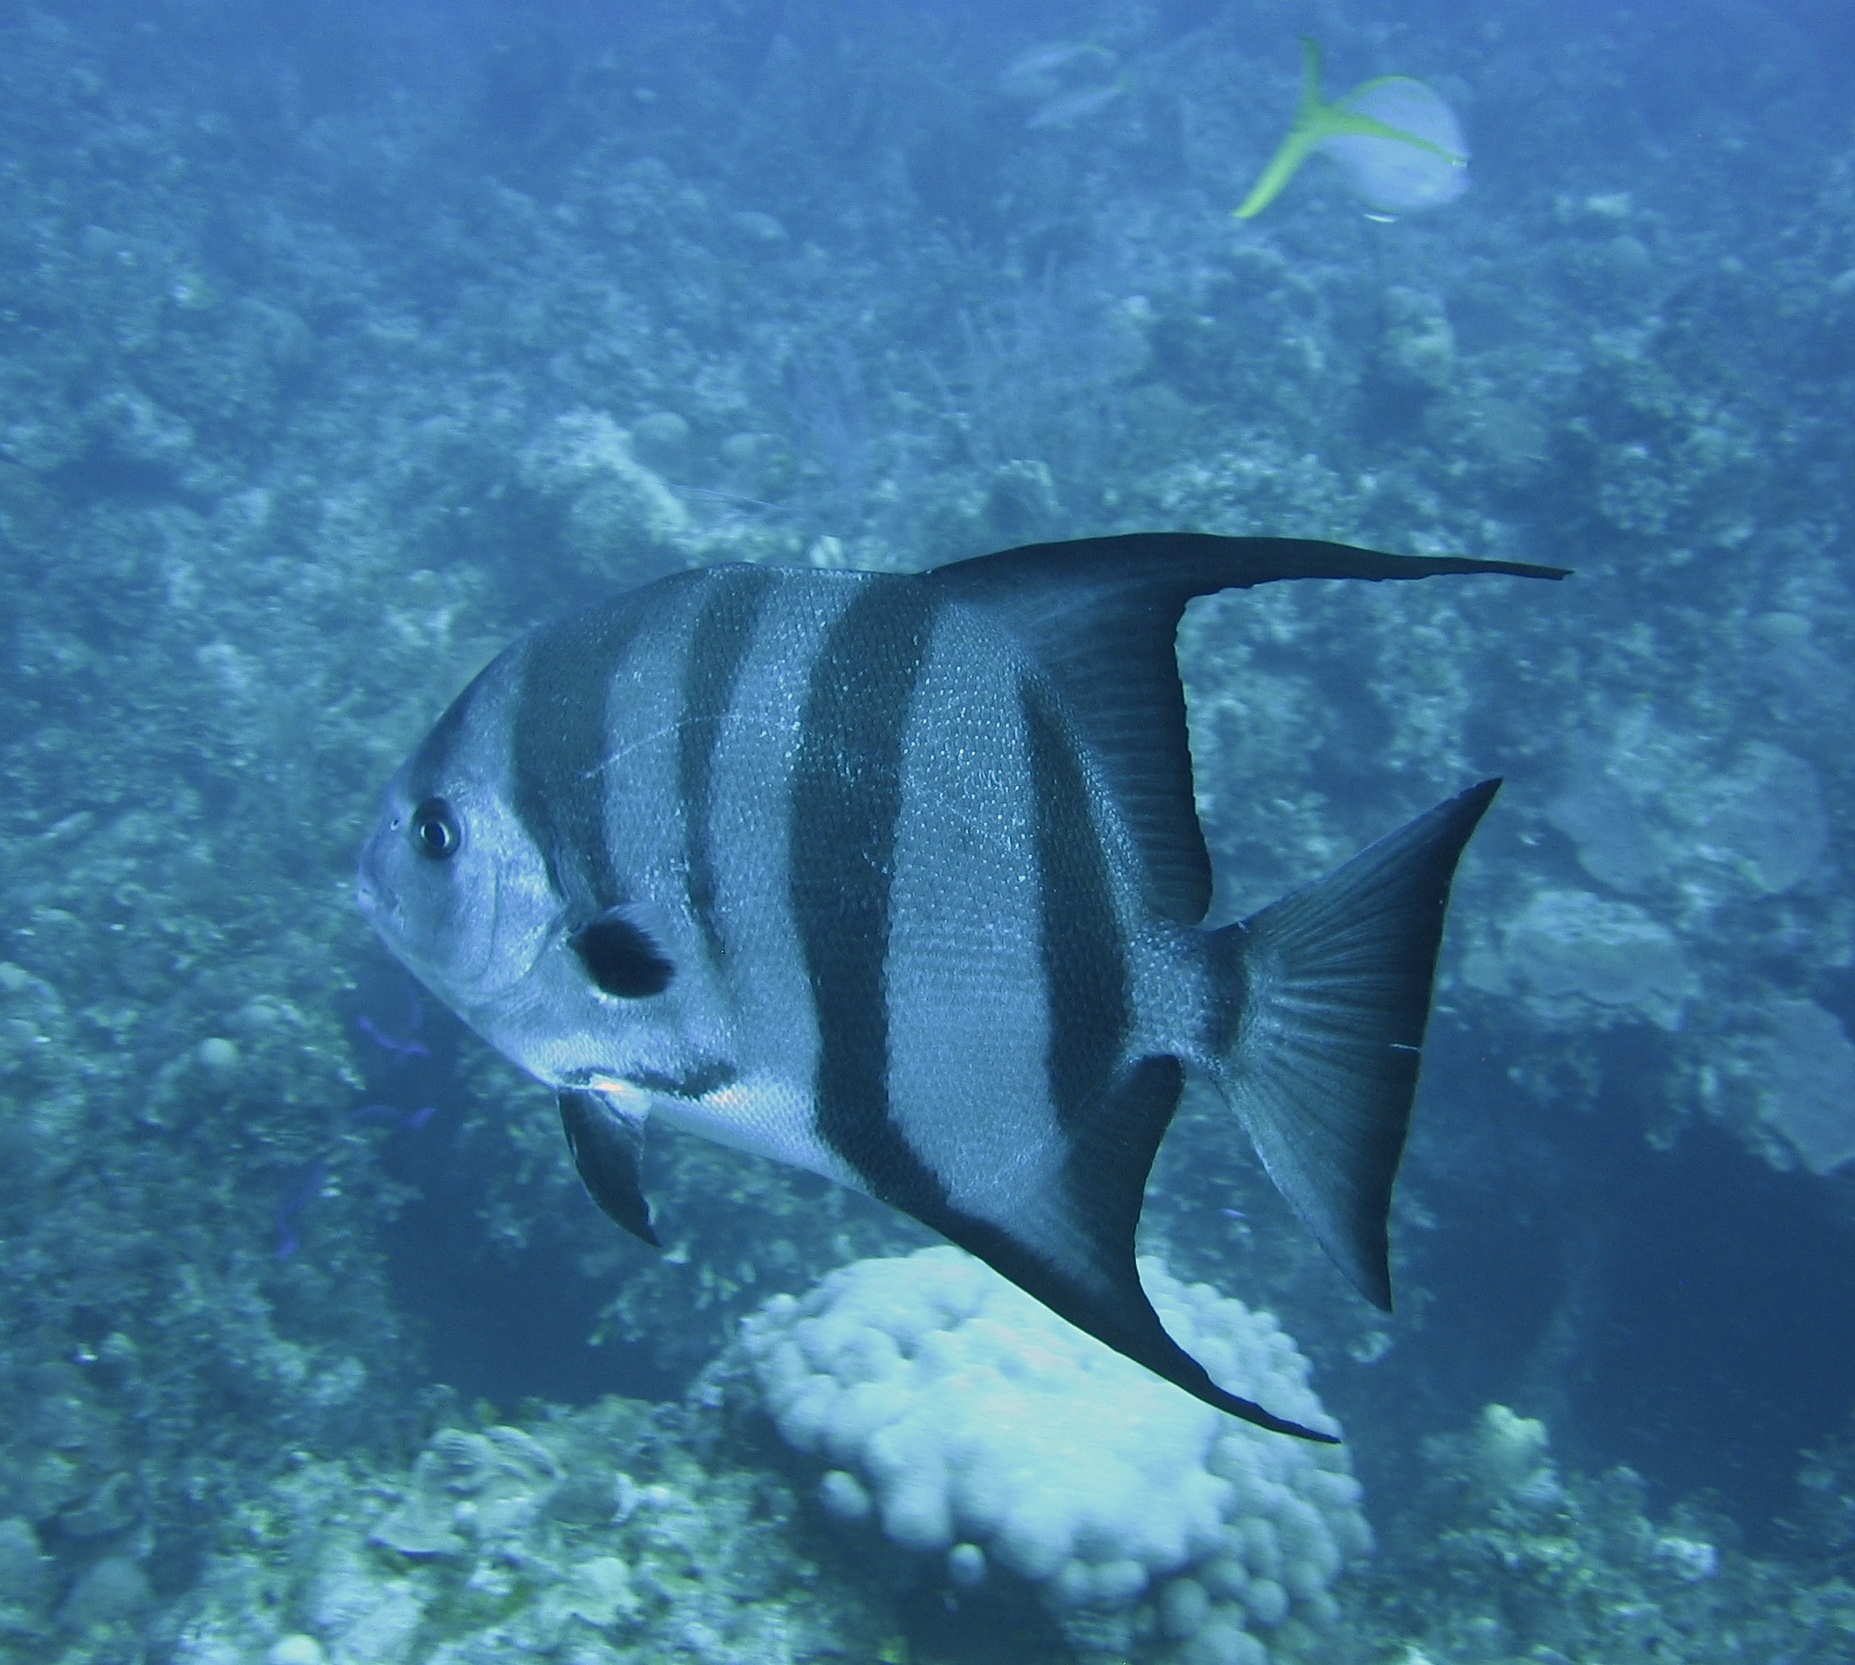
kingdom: Animalia
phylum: Chordata
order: Perciformes
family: Ephippidae
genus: Chaetodipterus
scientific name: Chaetodipterus faber
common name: Ocean cobbler
